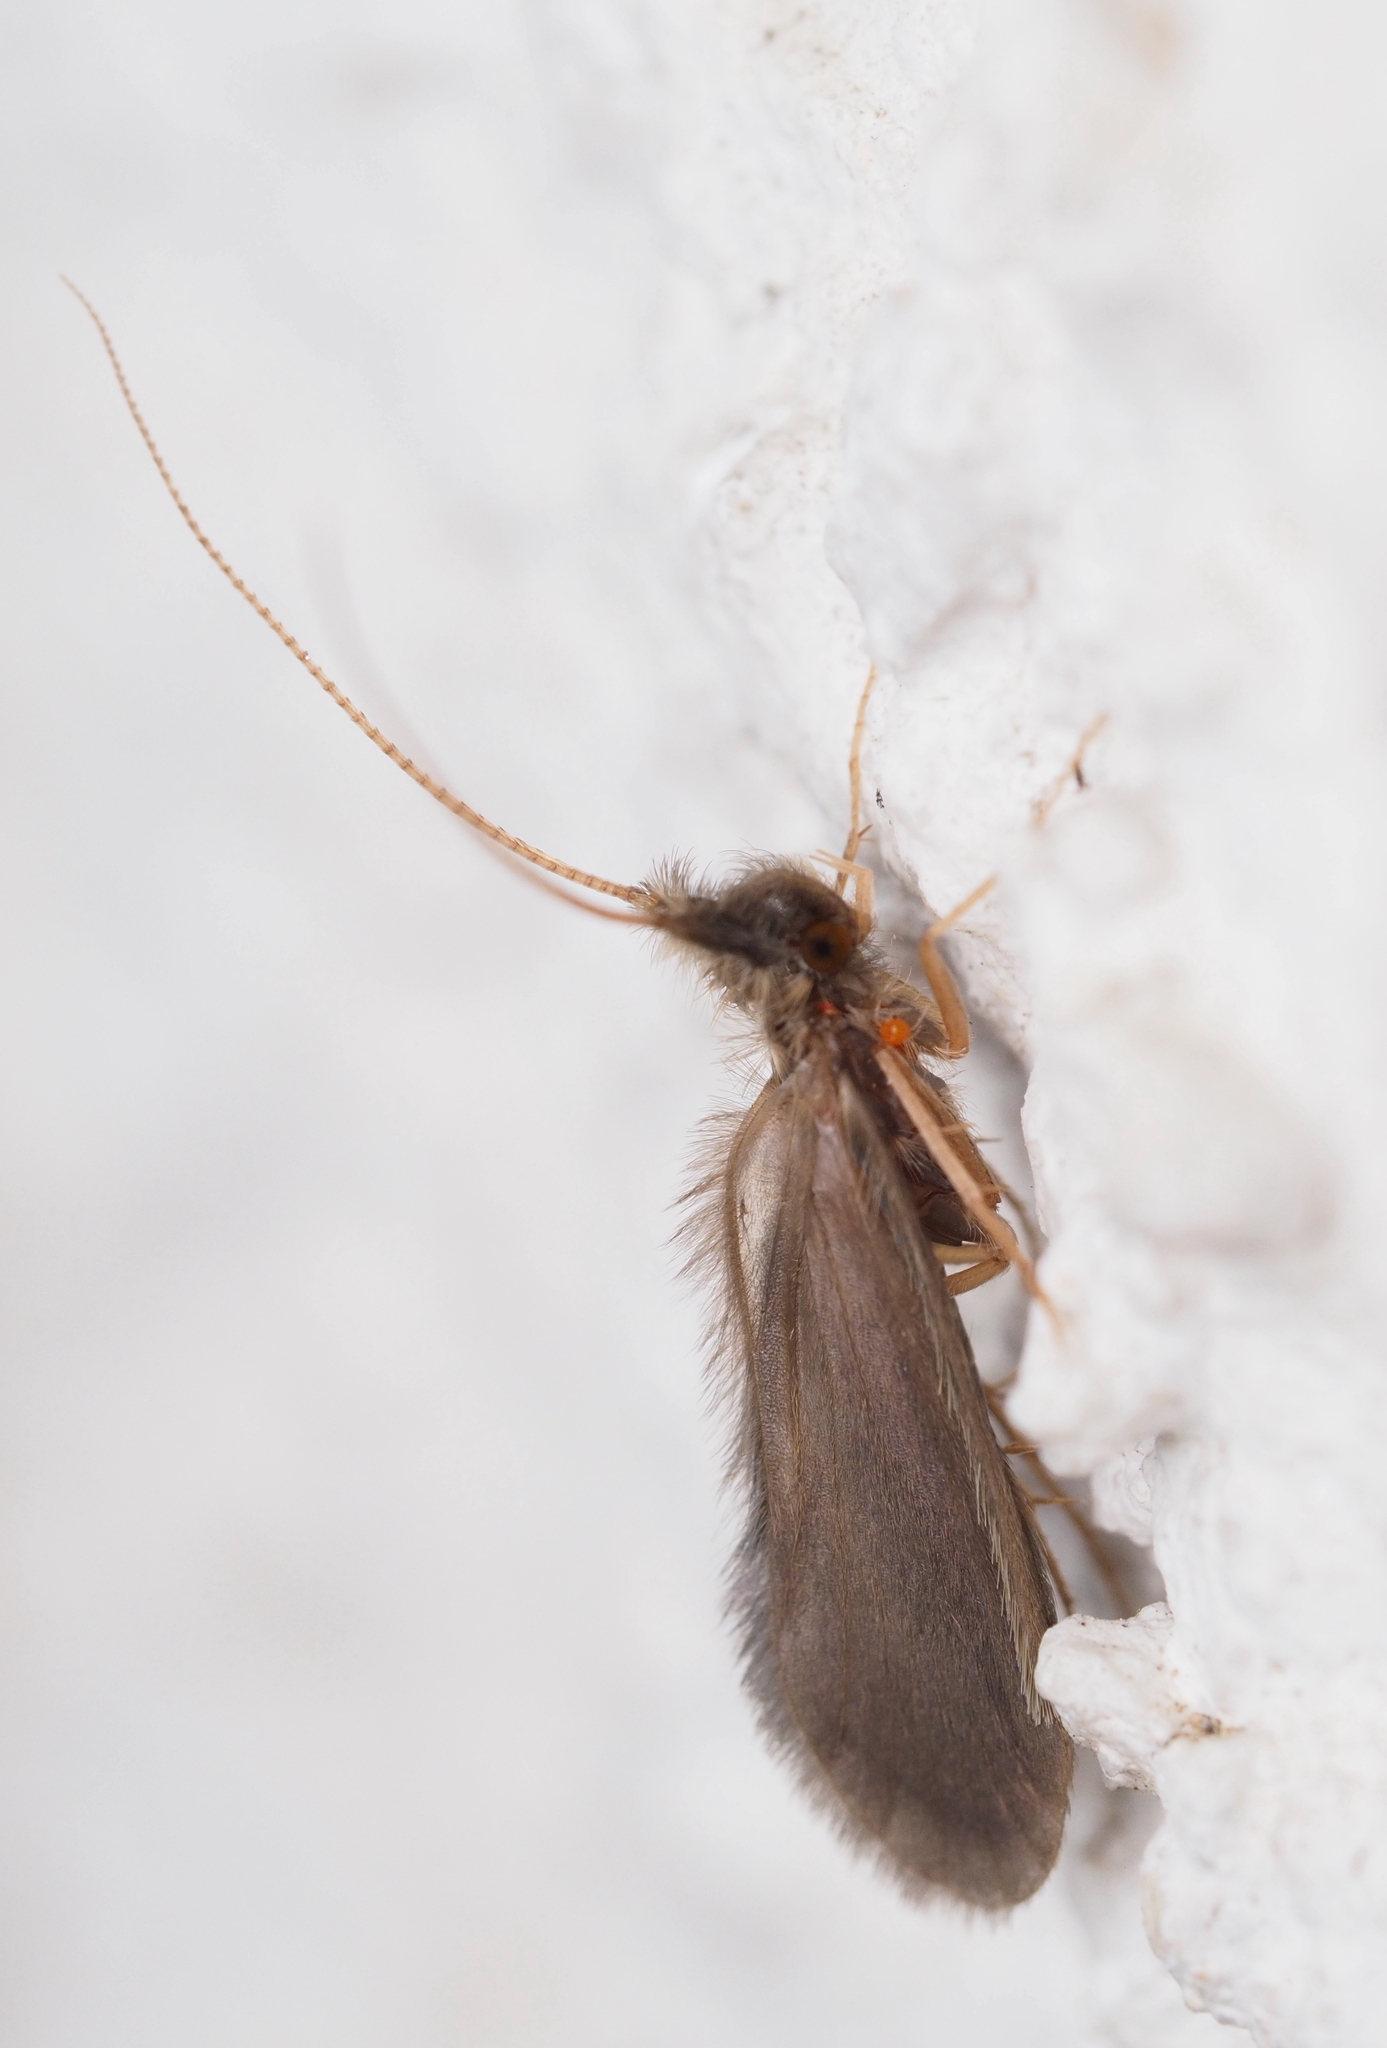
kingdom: Animalia
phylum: Arthropoda
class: Insecta
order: Trichoptera
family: Lepidostomatidae
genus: Lasiocephala
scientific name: Lasiocephala basalis
